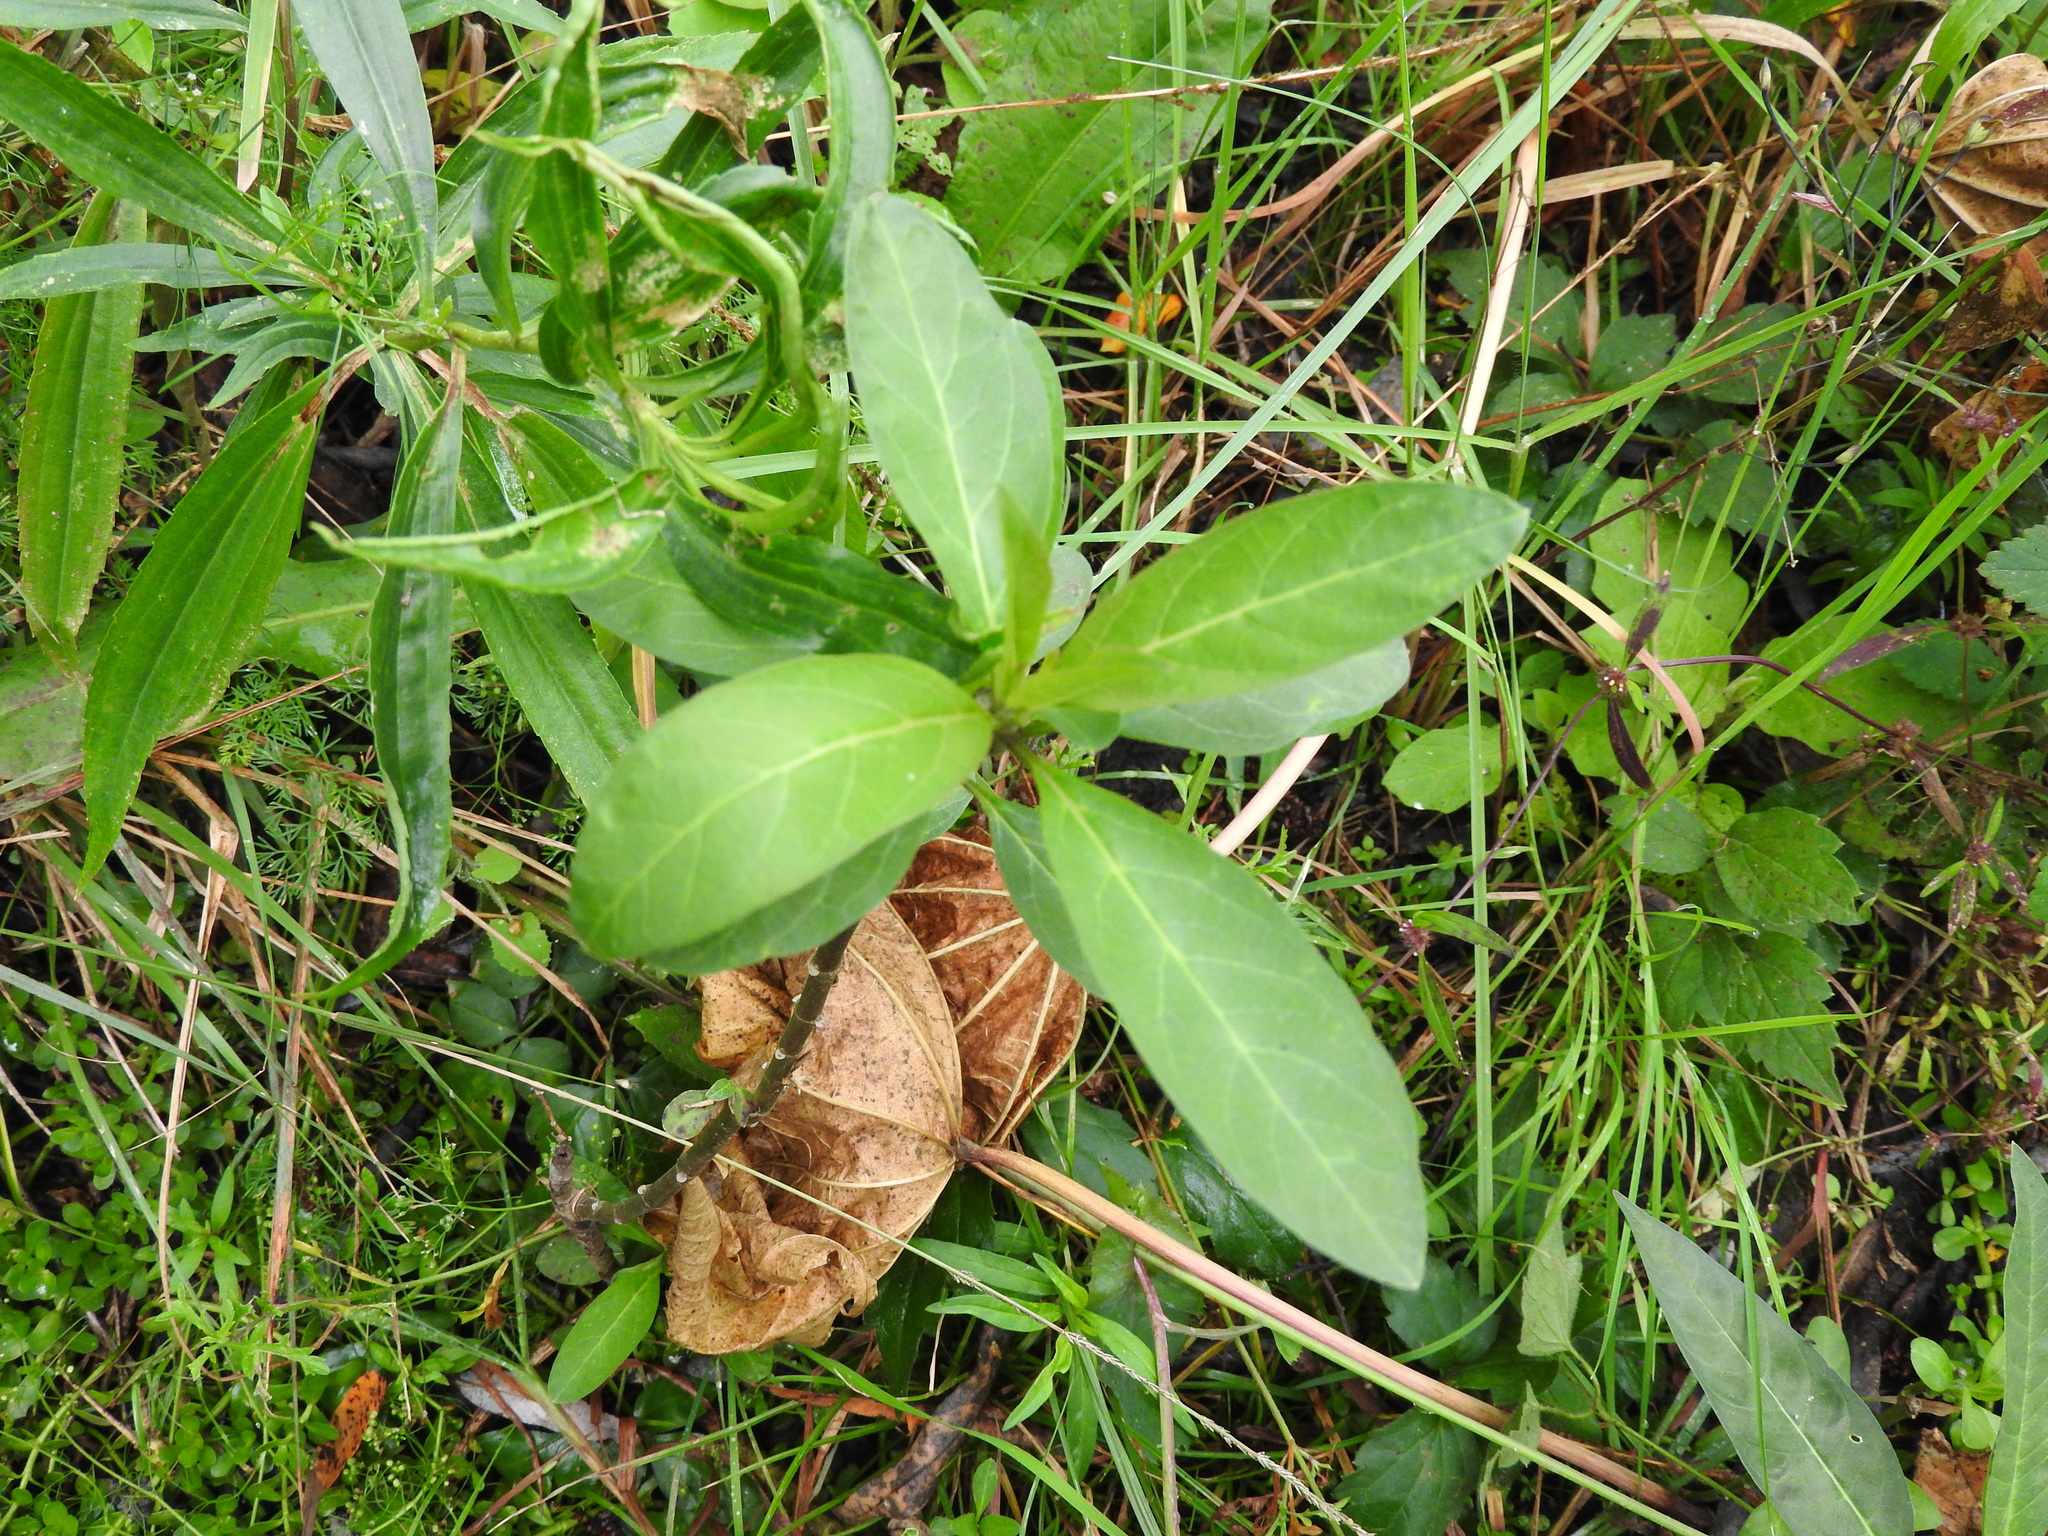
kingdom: Plantae
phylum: Tracheophyta
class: Magnoliopsida
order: Gentianales
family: Apocynaceae
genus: Asclepias
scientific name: Asclepias curassavica
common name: Bloodflower
